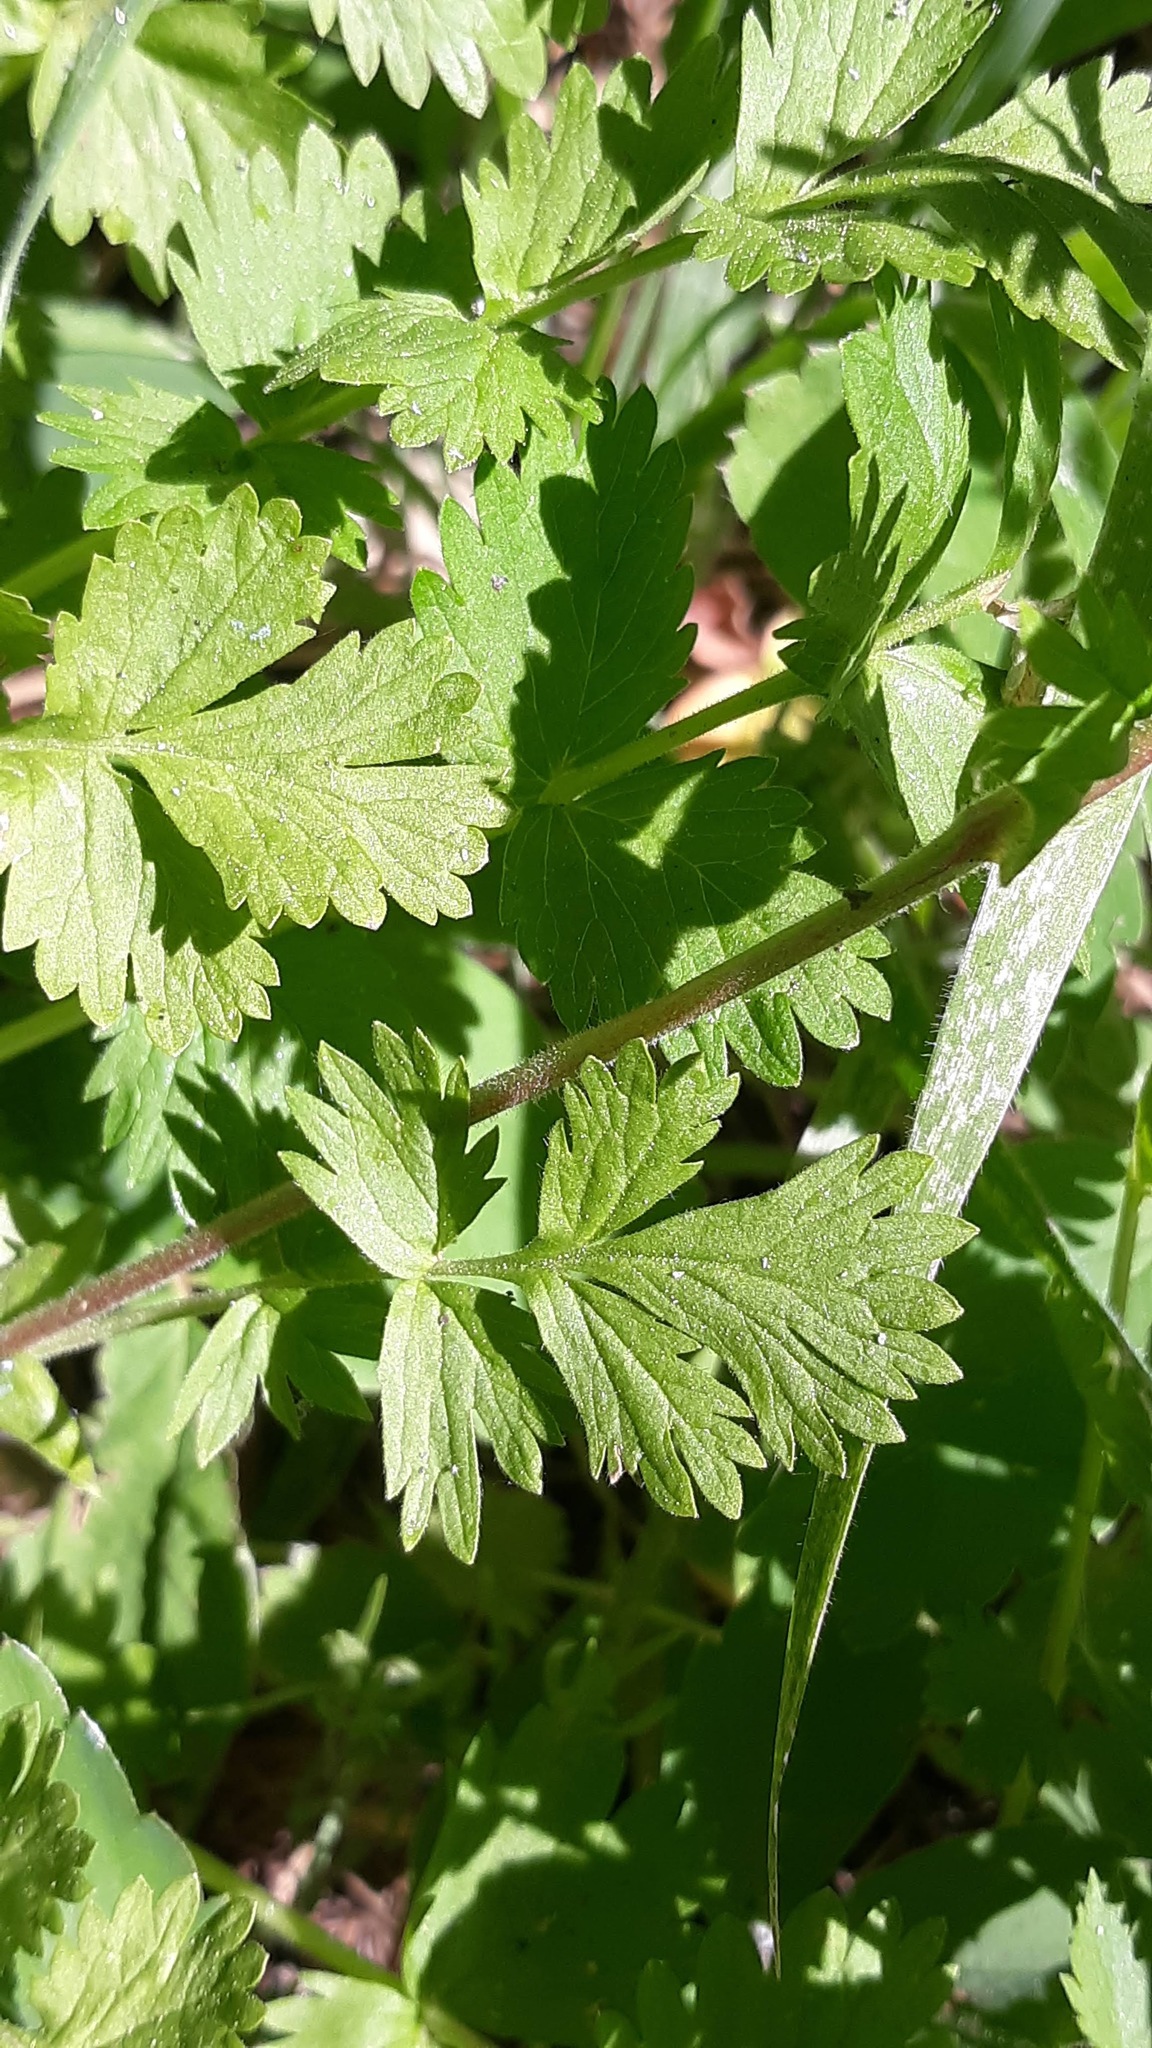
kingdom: Plantae
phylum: Tracheophyta
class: Magnoliopsida
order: Rosales
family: Rosaceae
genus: Potentilla
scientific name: Potentilla douglasii
